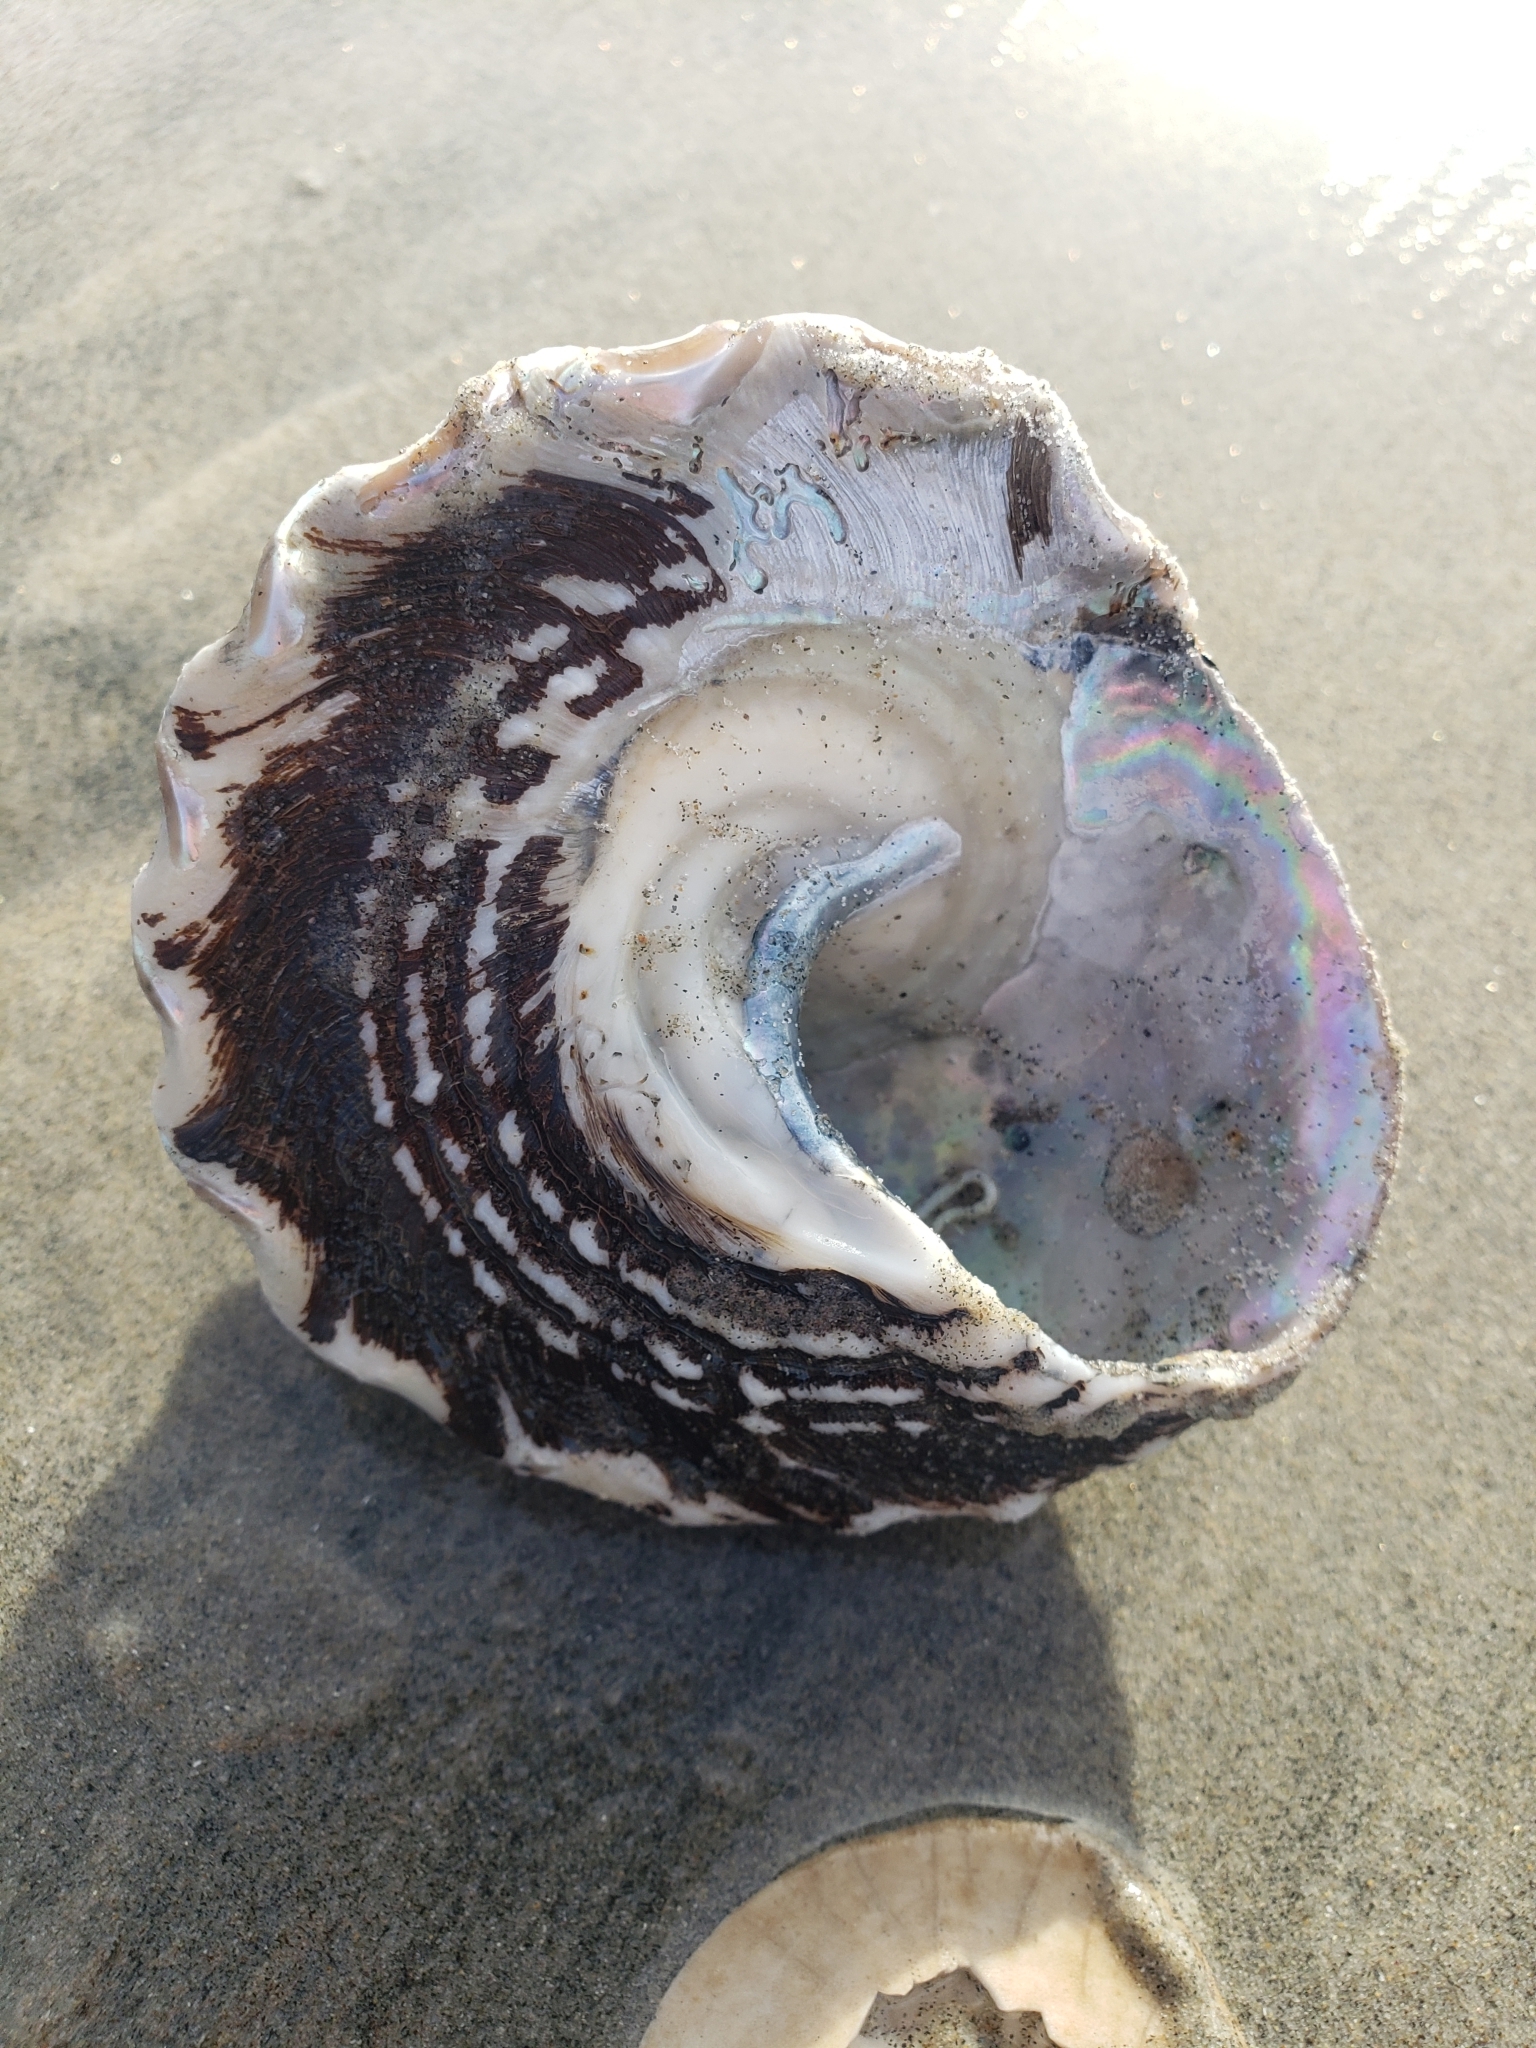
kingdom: Animalia
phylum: Mollusca
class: Gastropoda
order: Trochida
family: Turbinidae
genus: Megastraea
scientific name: Megastraea undosa
